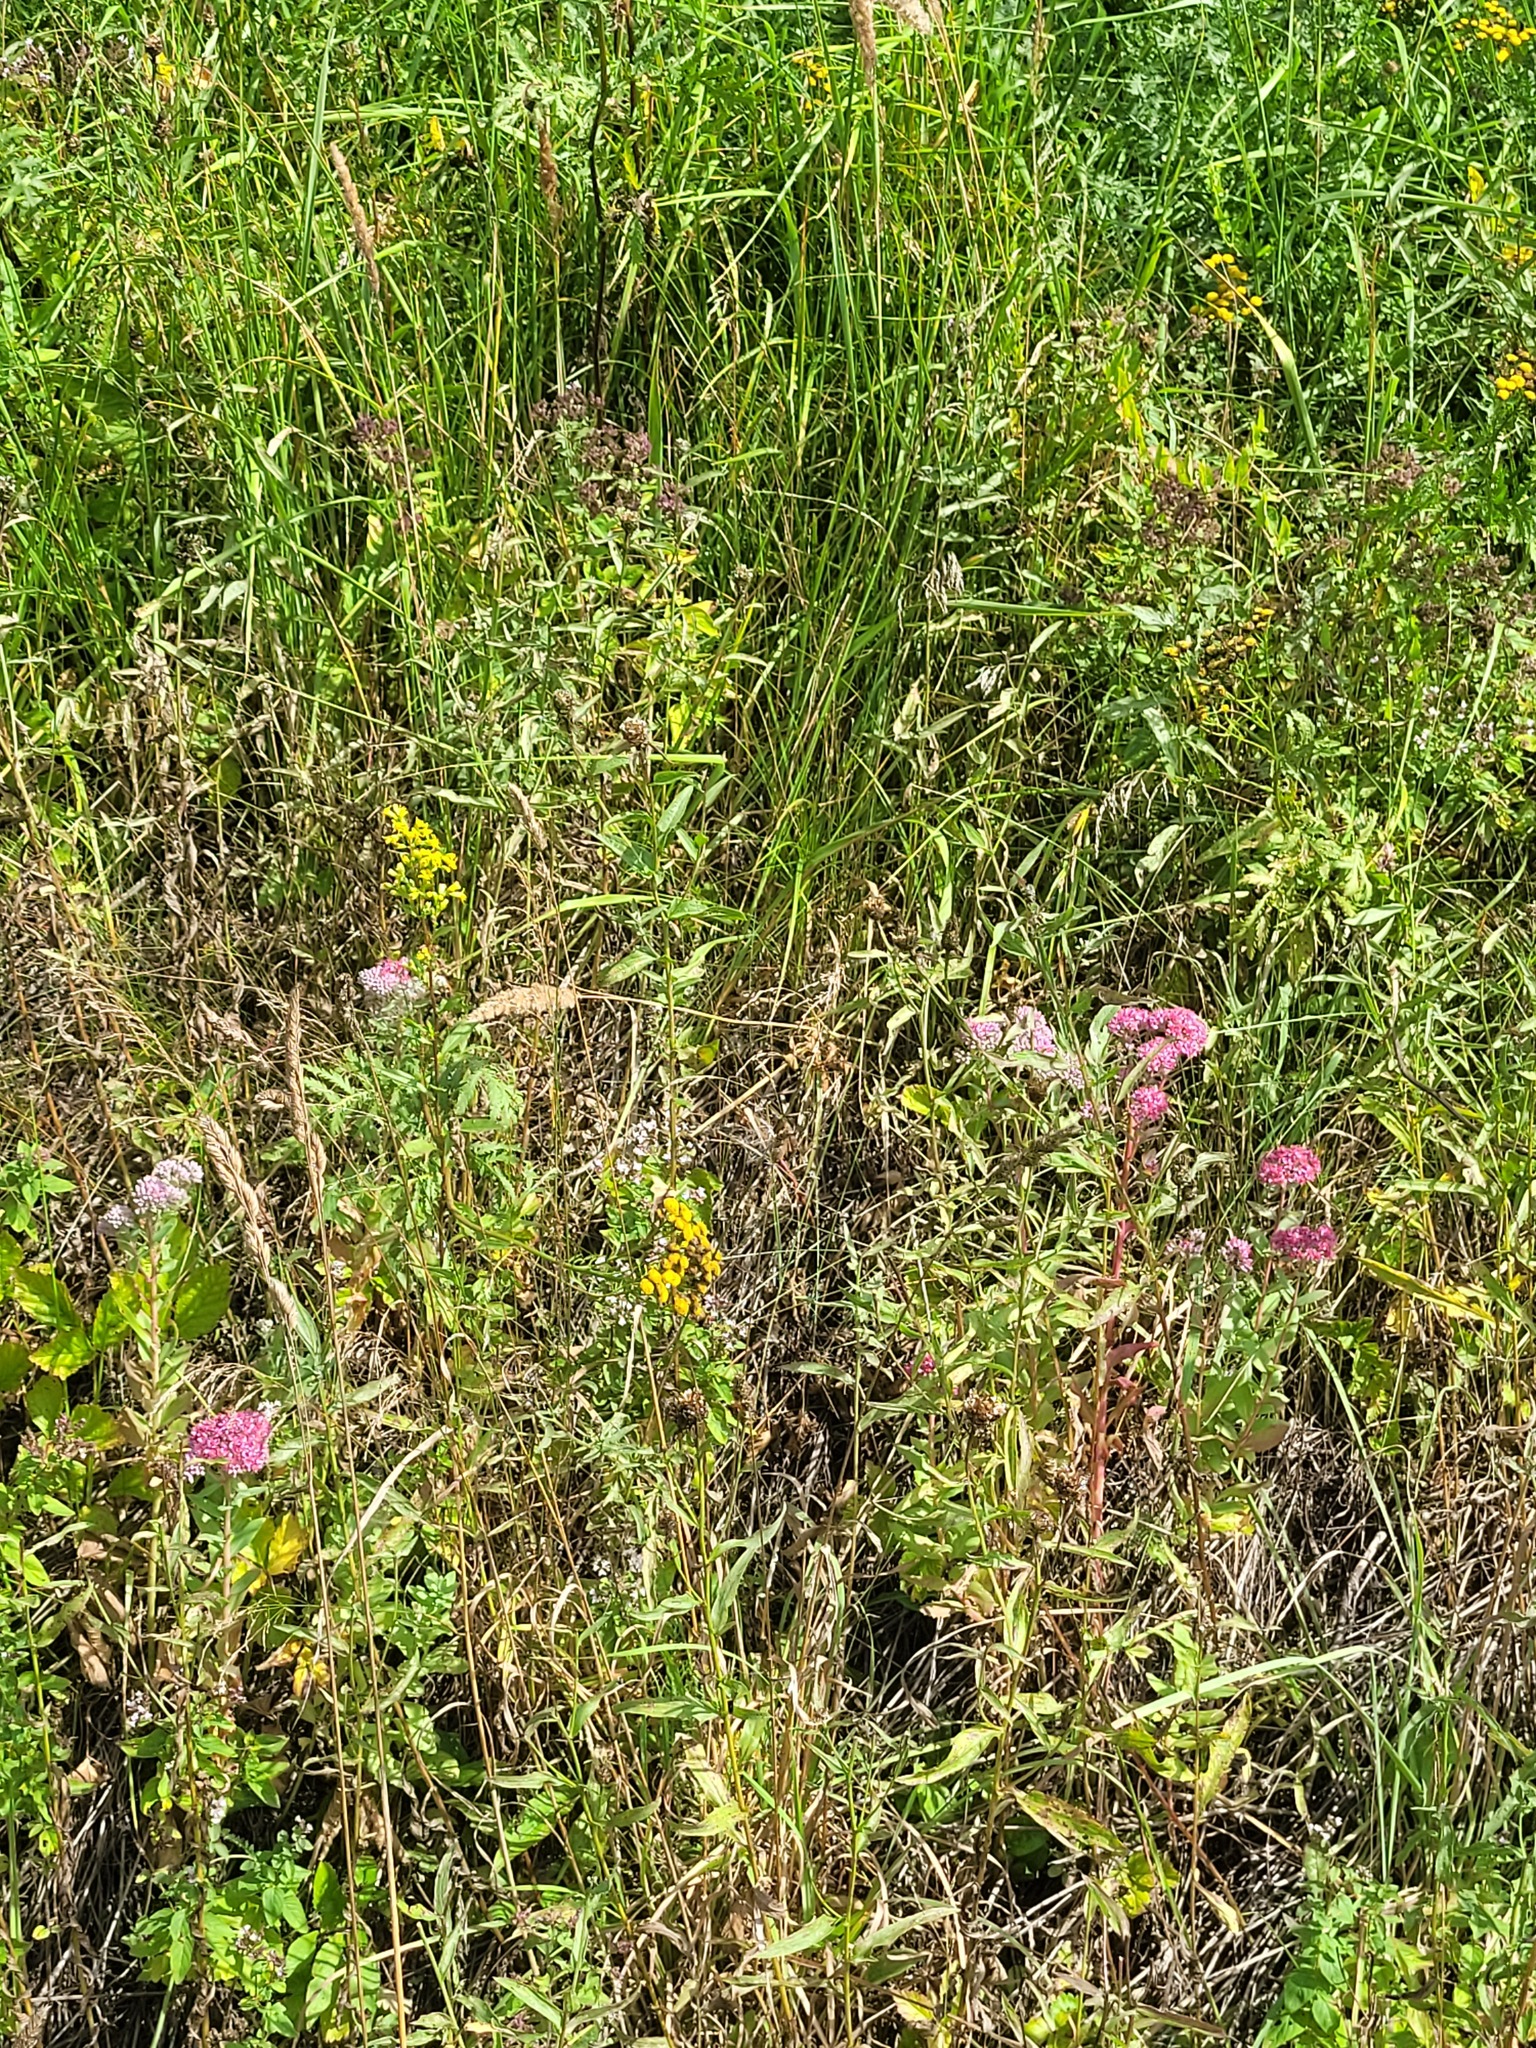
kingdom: Plantae
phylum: Tracheophyta
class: Magnoliopsida
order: Saxifragales
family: Crassulaceae
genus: Hylotelephium
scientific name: Hylotelephium telephium
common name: Live-forever
